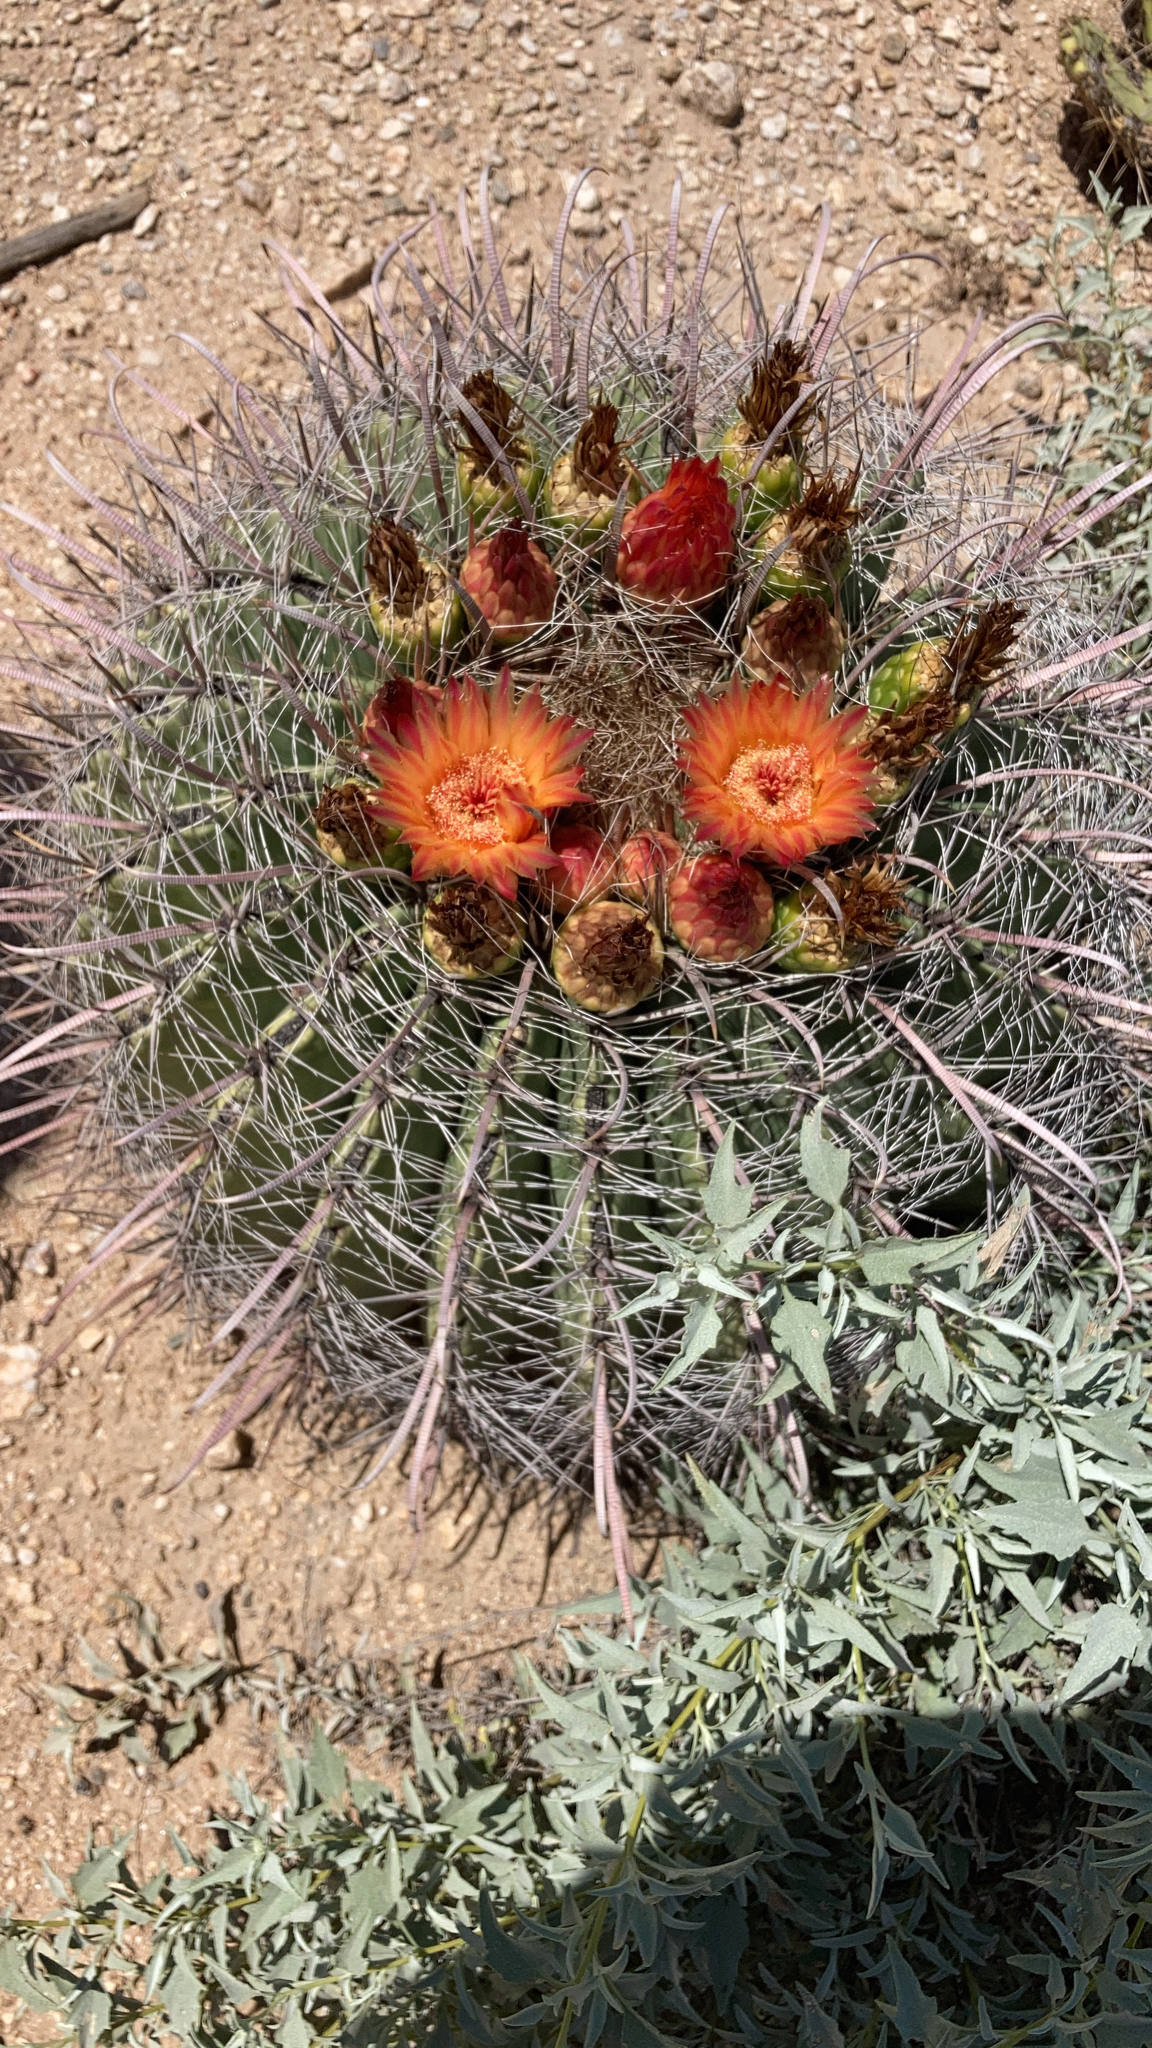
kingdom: Plantae
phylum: Tracheophyta
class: Magnoliopsida
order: Caryophyllales
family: Cactaceae
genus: Ferocactus
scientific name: Ferocactus wislizeni
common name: Candy barrel cactus
